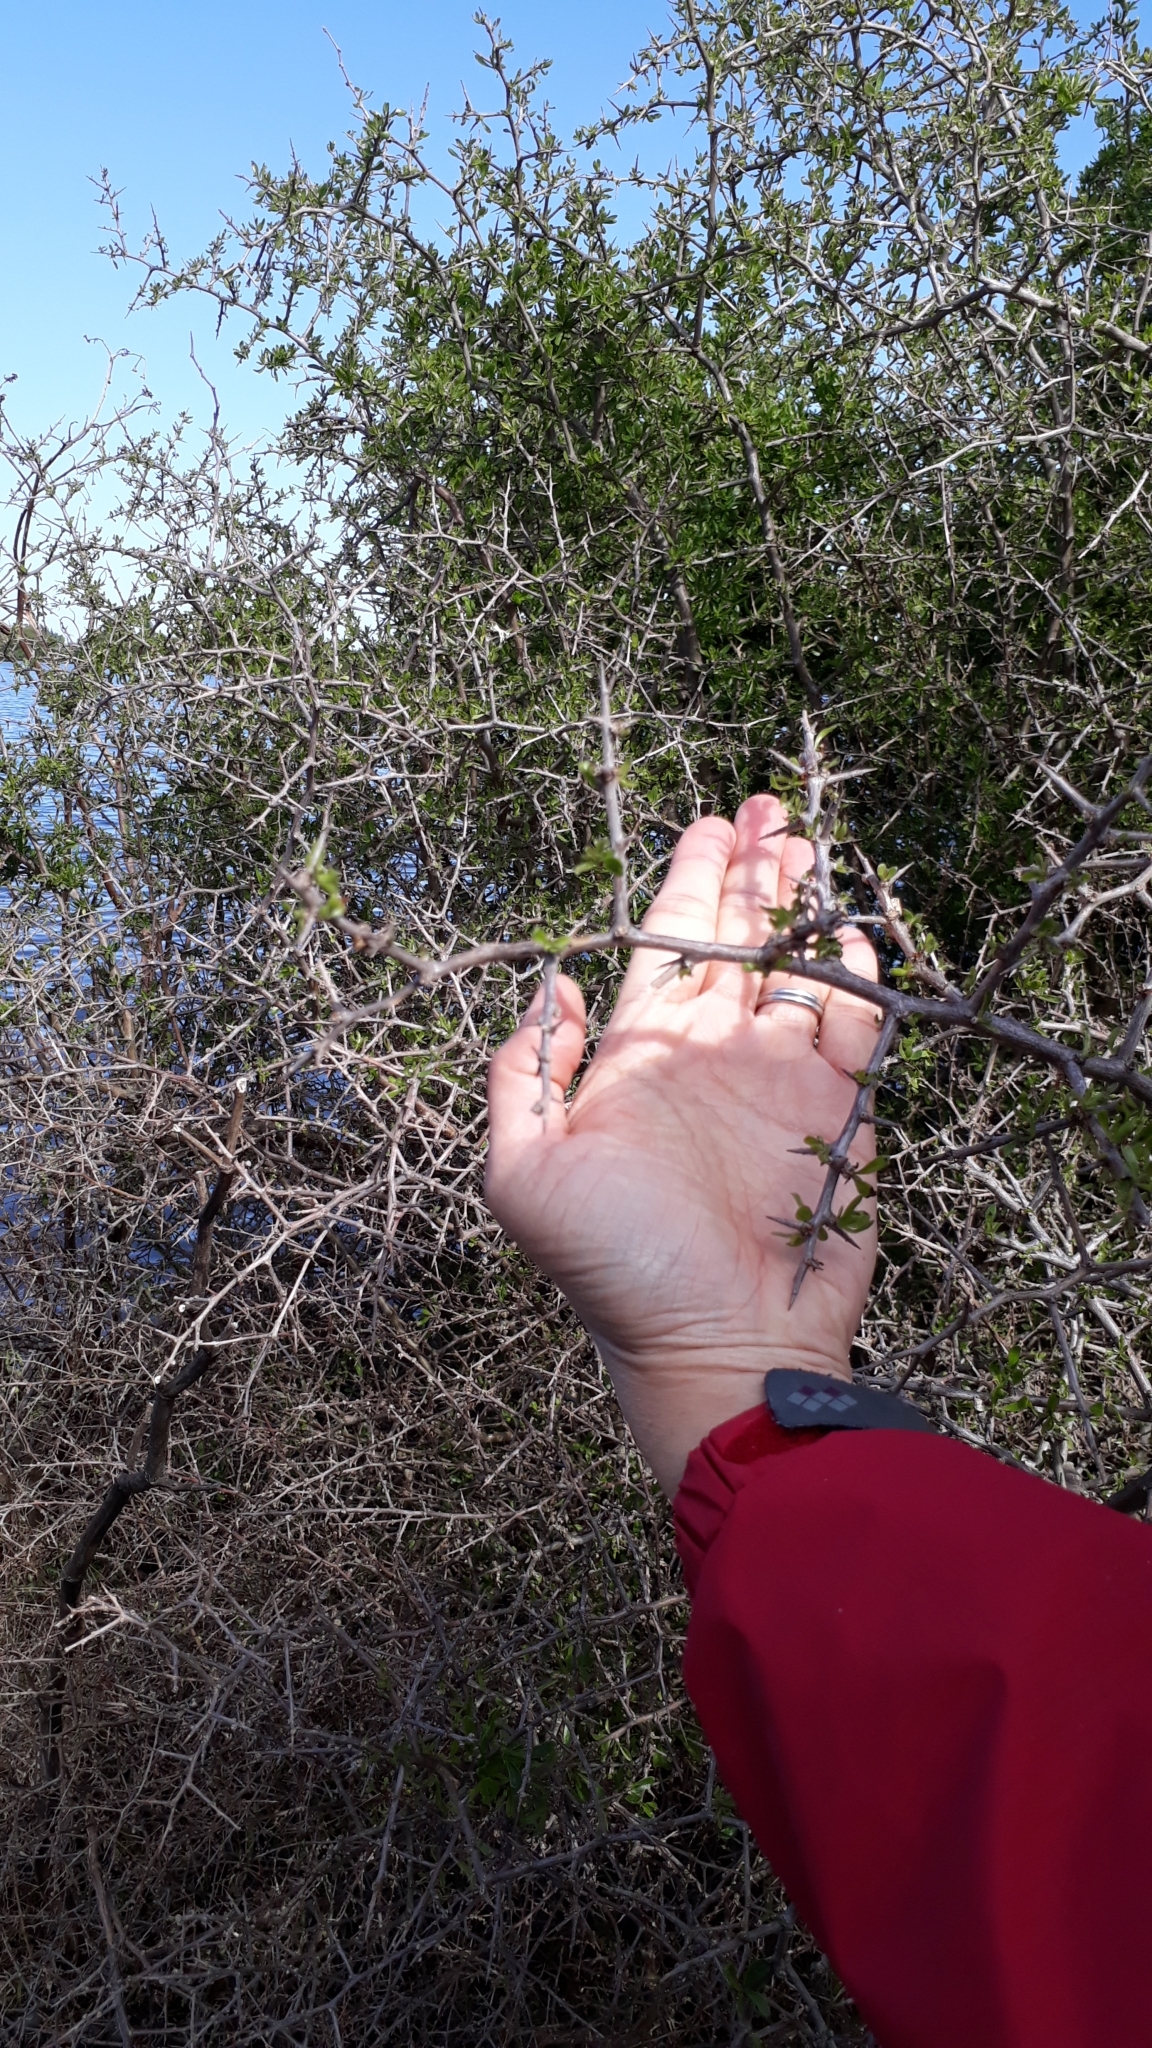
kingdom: Plantae
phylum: Tracheophyta
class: Magnoliopsida
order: Solanales
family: Solanaceae
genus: Lycium
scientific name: Lycium ferocissimum
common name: African boxthorn
